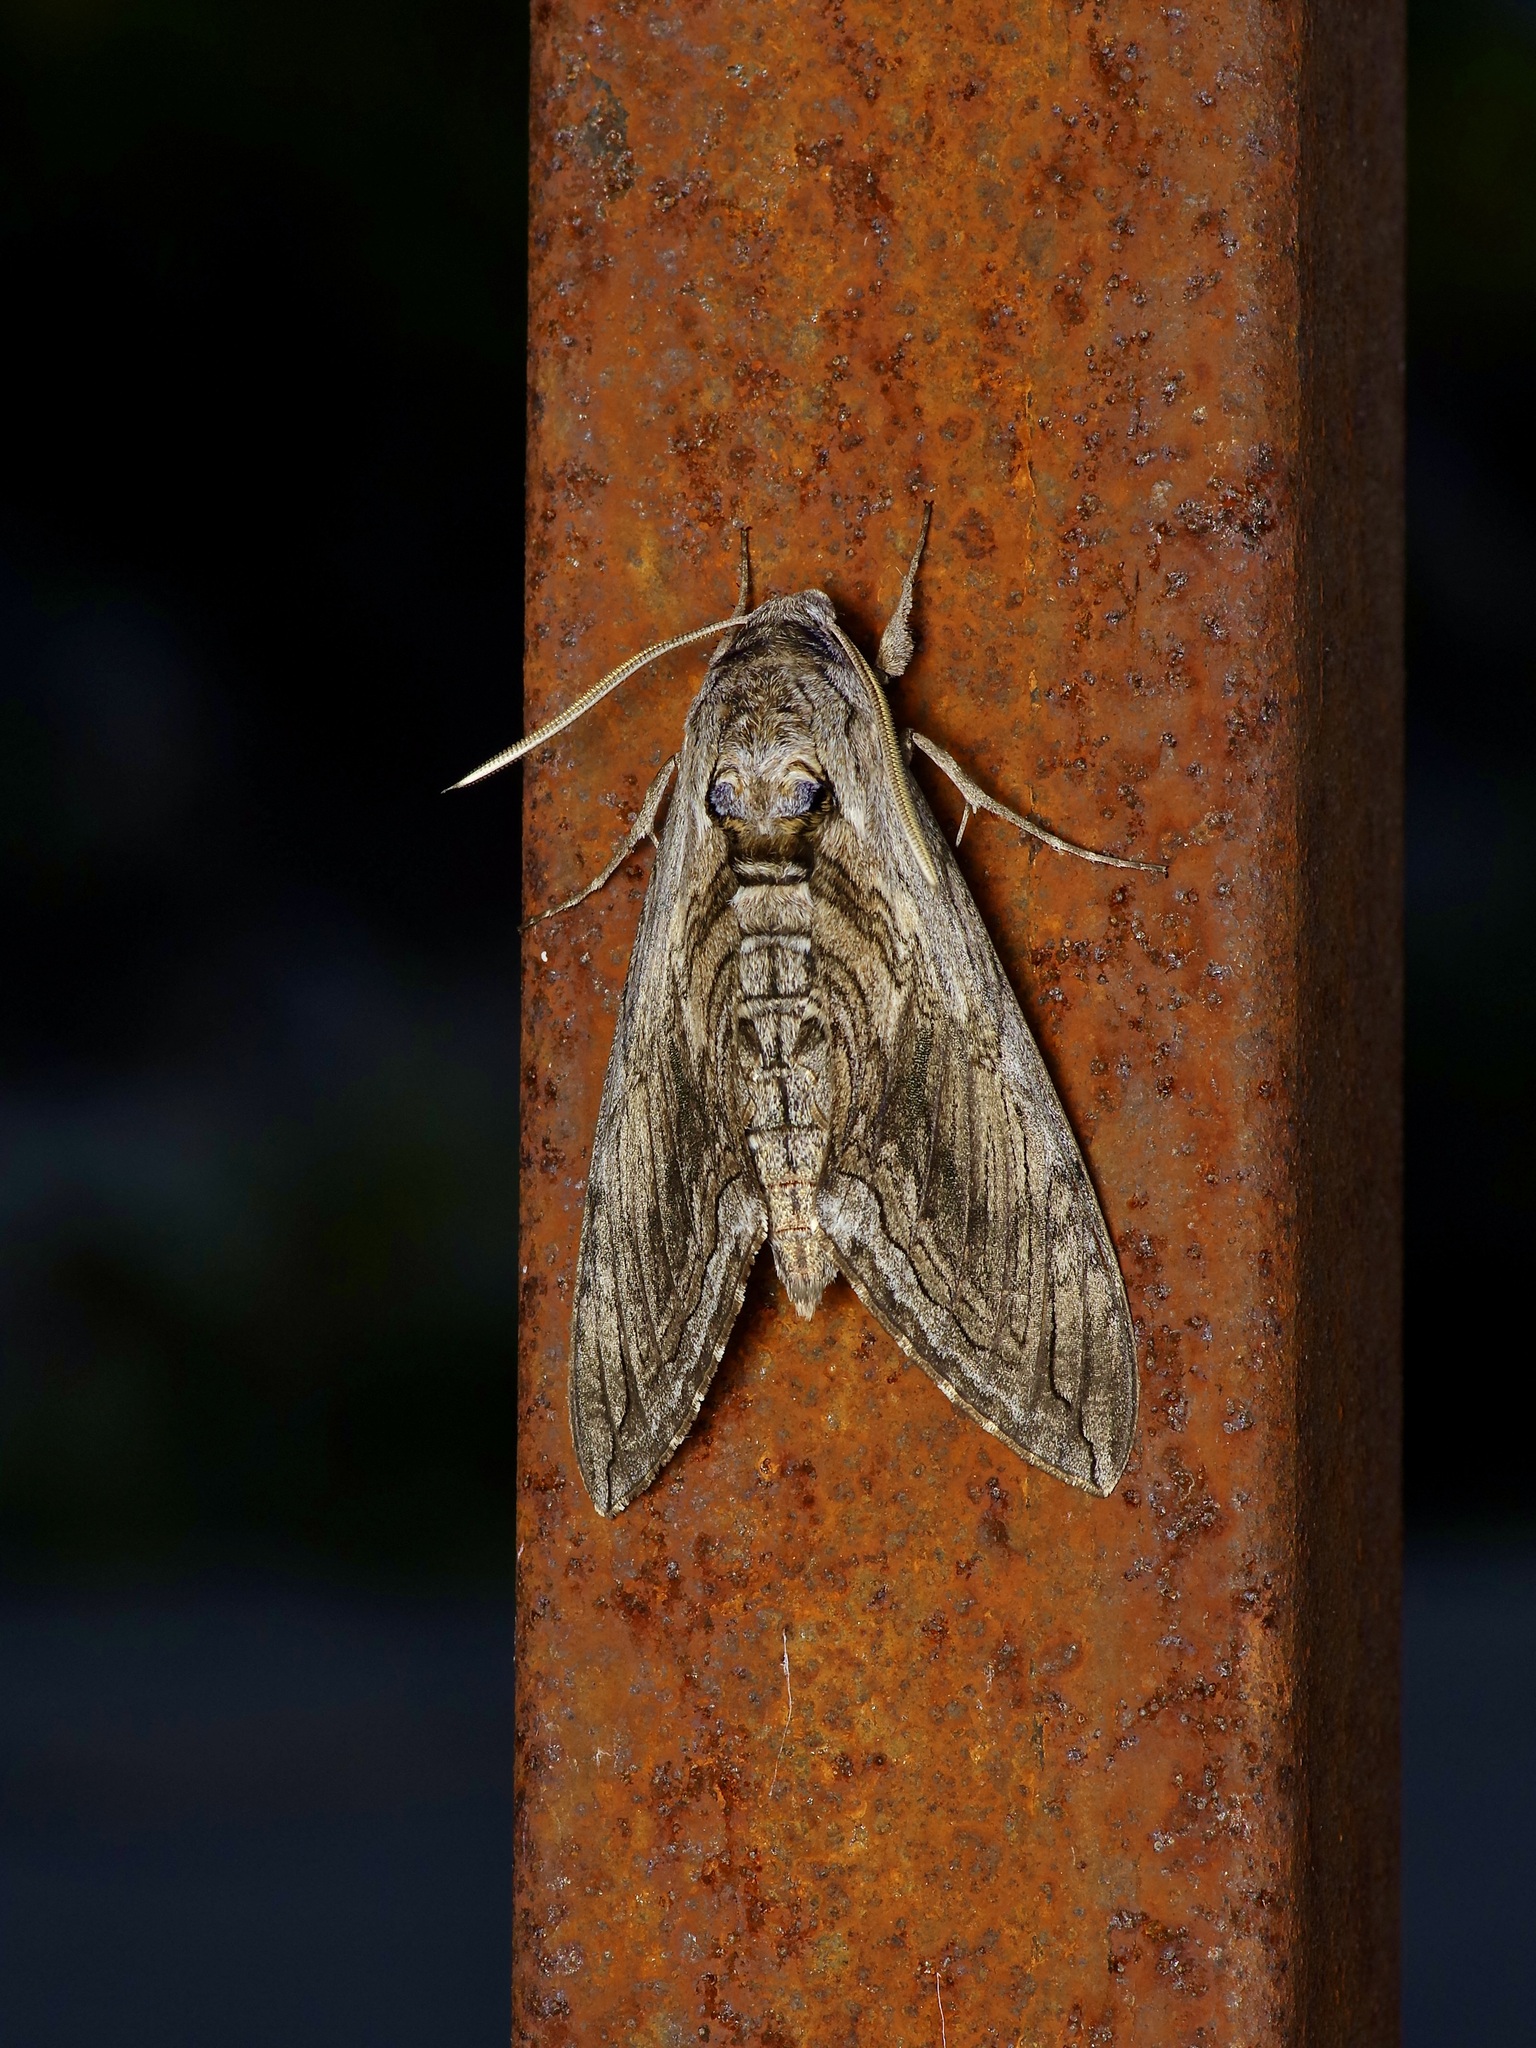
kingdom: Animalia
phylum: Arthropoda
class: Insecta
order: Lepidoptera
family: Sphingidae
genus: Manduca
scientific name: Manduca quinquemaculatus
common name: Five-spotted hawk-moth
